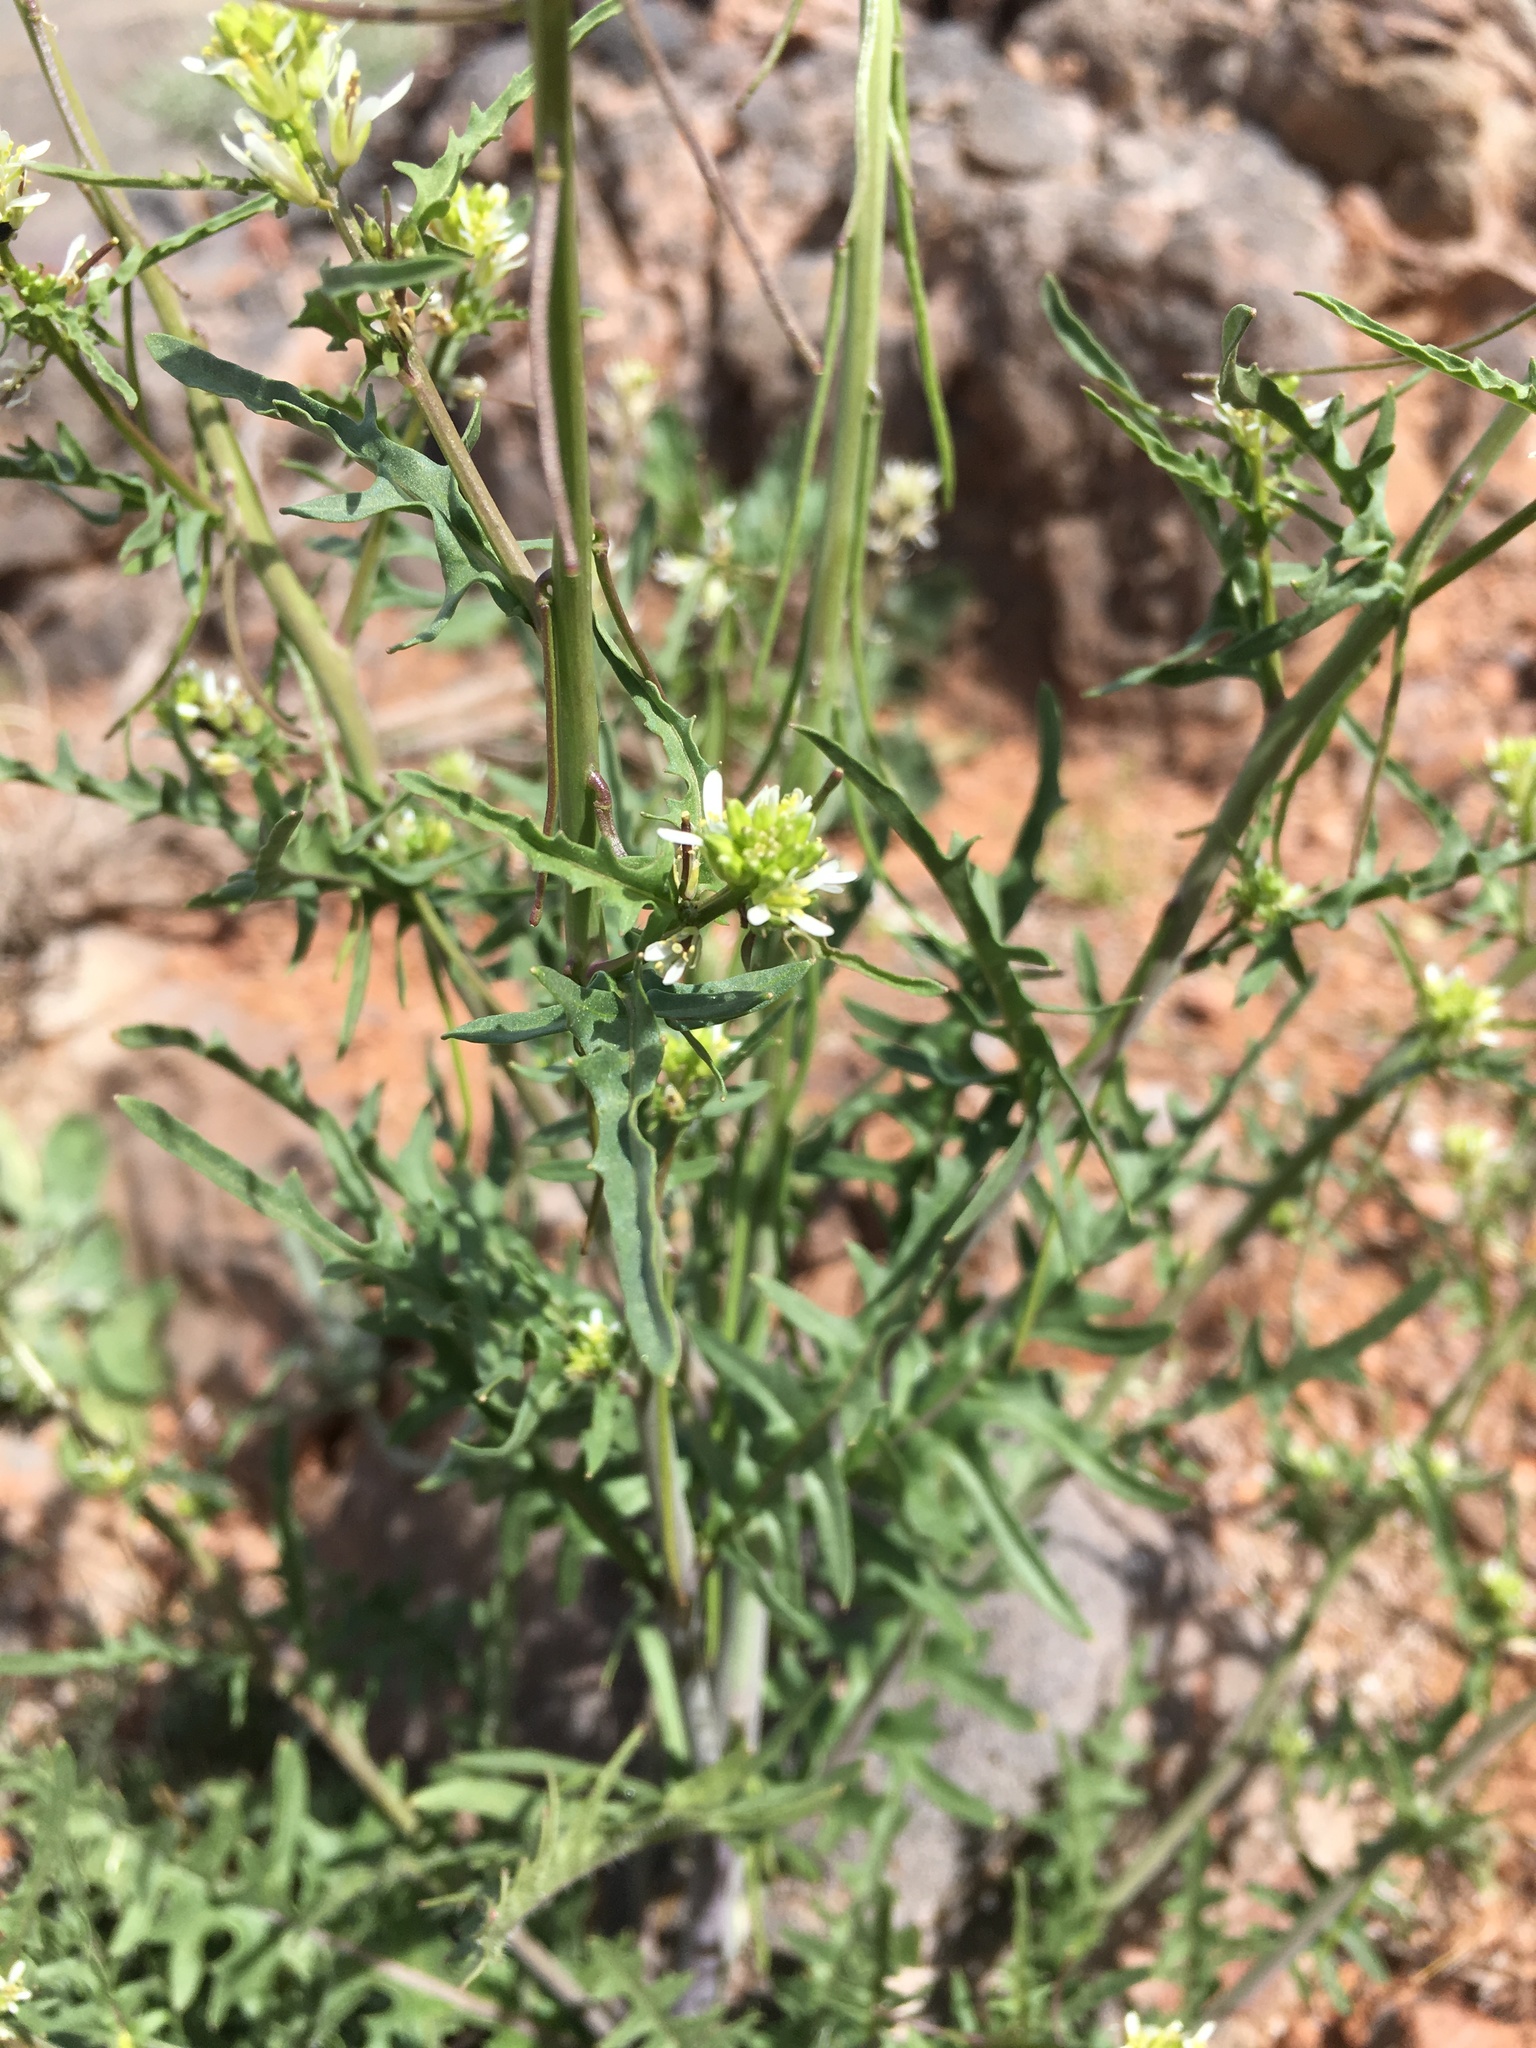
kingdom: Plantae
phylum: Tracheophyta
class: Magnoliopsida
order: Brassicales
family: Brassicaceae
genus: Streptanthus
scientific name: Streptanthus lasiophyllus
